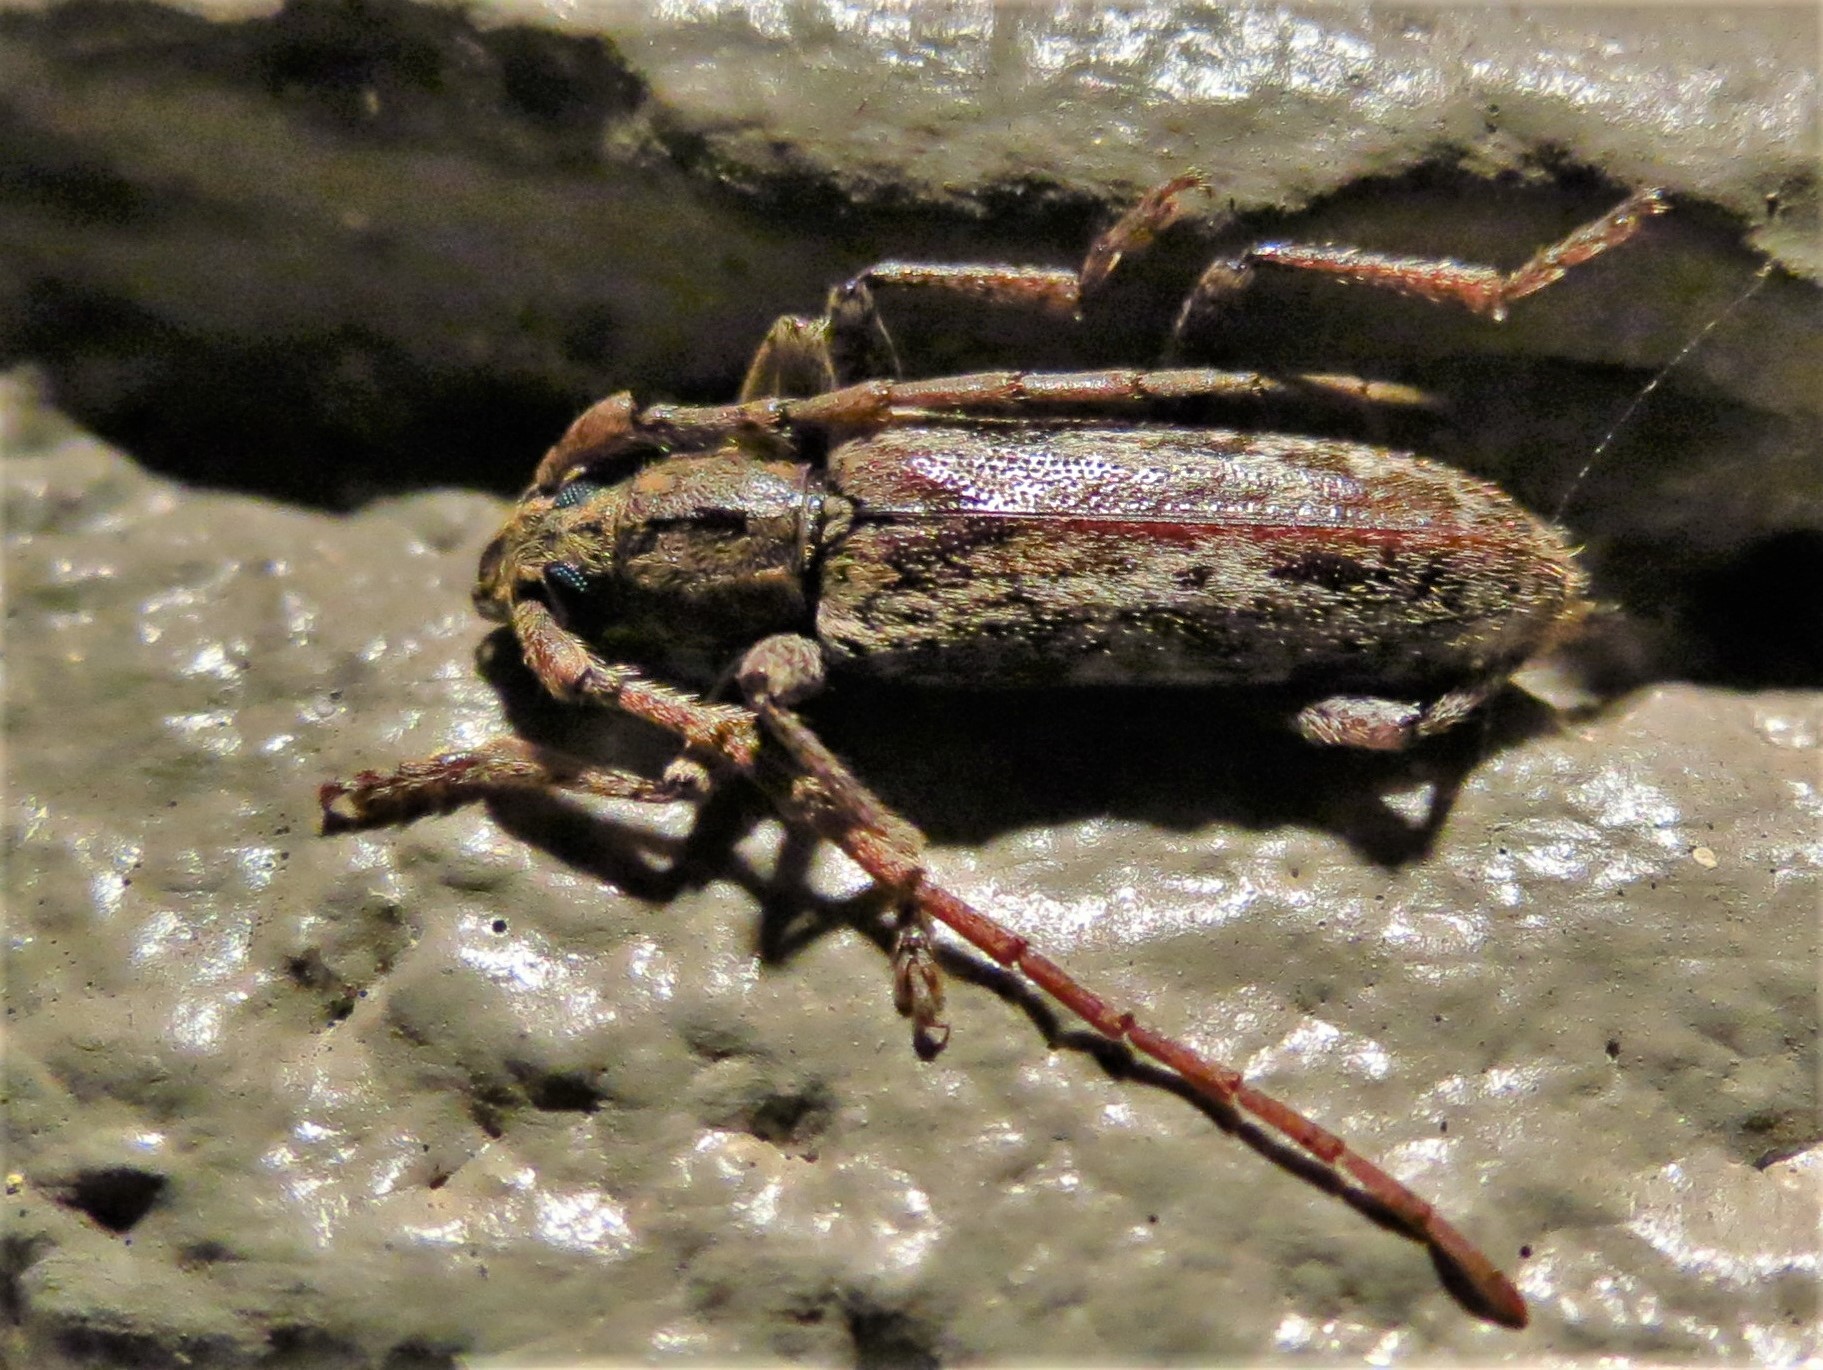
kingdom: Animalia
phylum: Arthropoda
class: Insecta
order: Coleoptera
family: Cerambycidae
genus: Anelaphus
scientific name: Anelaphus pumilus
